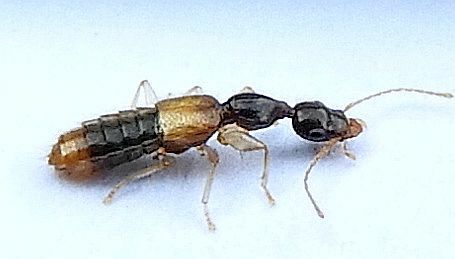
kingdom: Animalia
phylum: Arthropoda
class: Insecta
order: Coleoptera
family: Staphylinidae
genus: Stamnoderus
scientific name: Stamnoderus monstrosus
